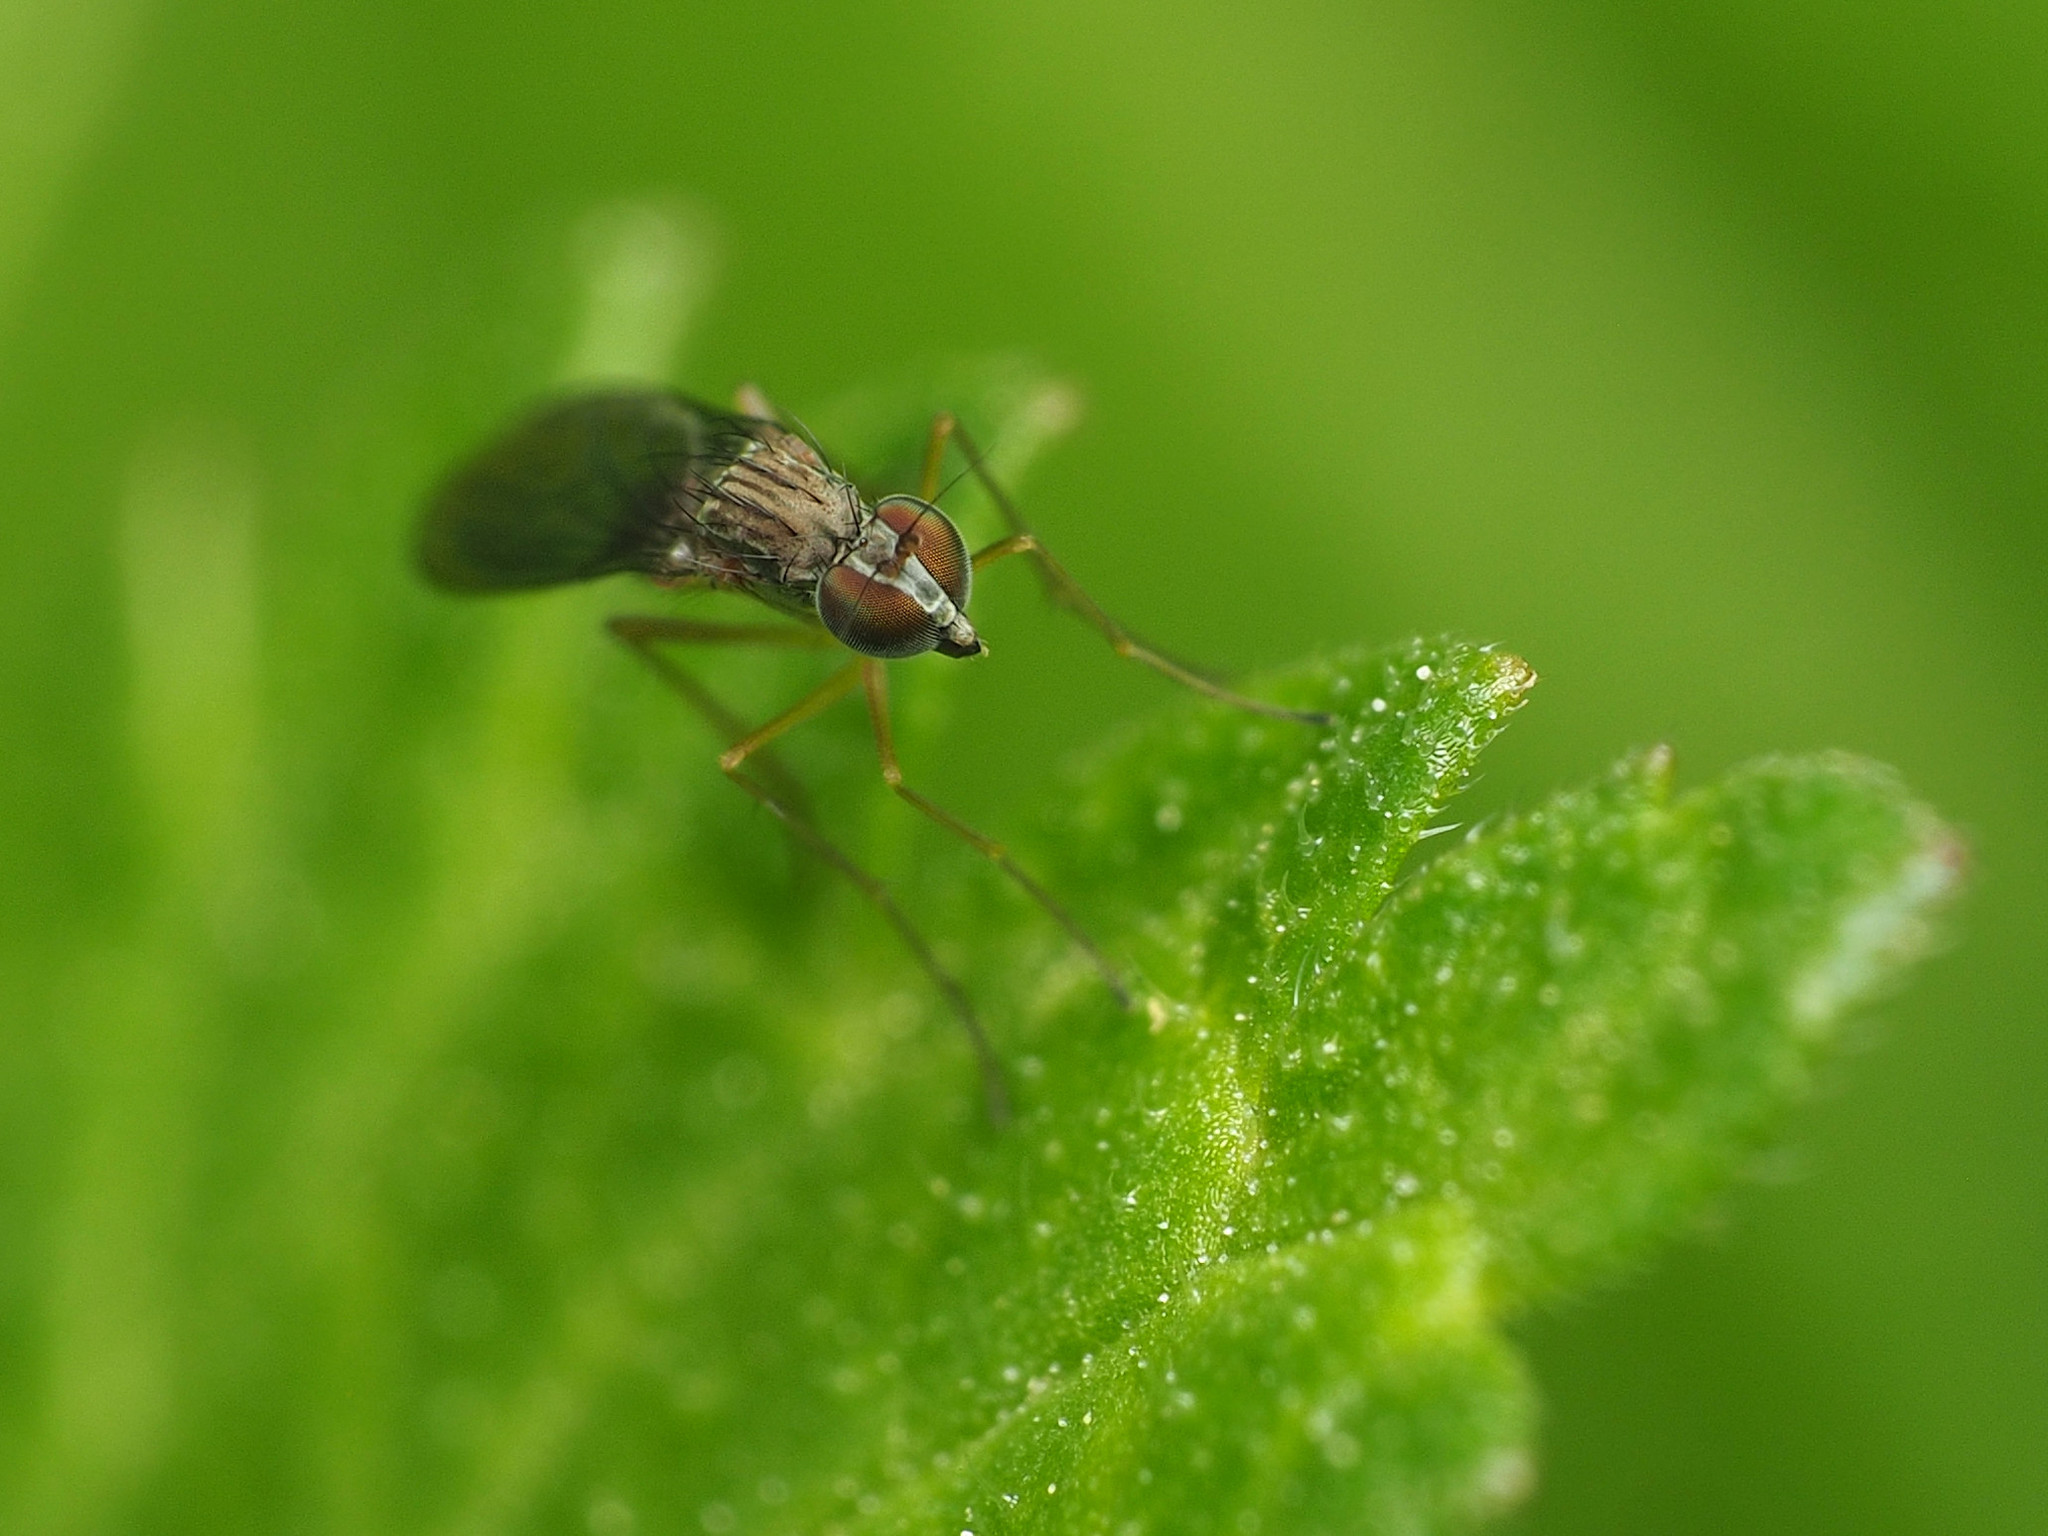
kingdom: Animalia
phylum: Arthropoda
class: Insecta
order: Diptera
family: Dolichopodidae
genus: Sympycnus
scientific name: Sympycnus lineatus
